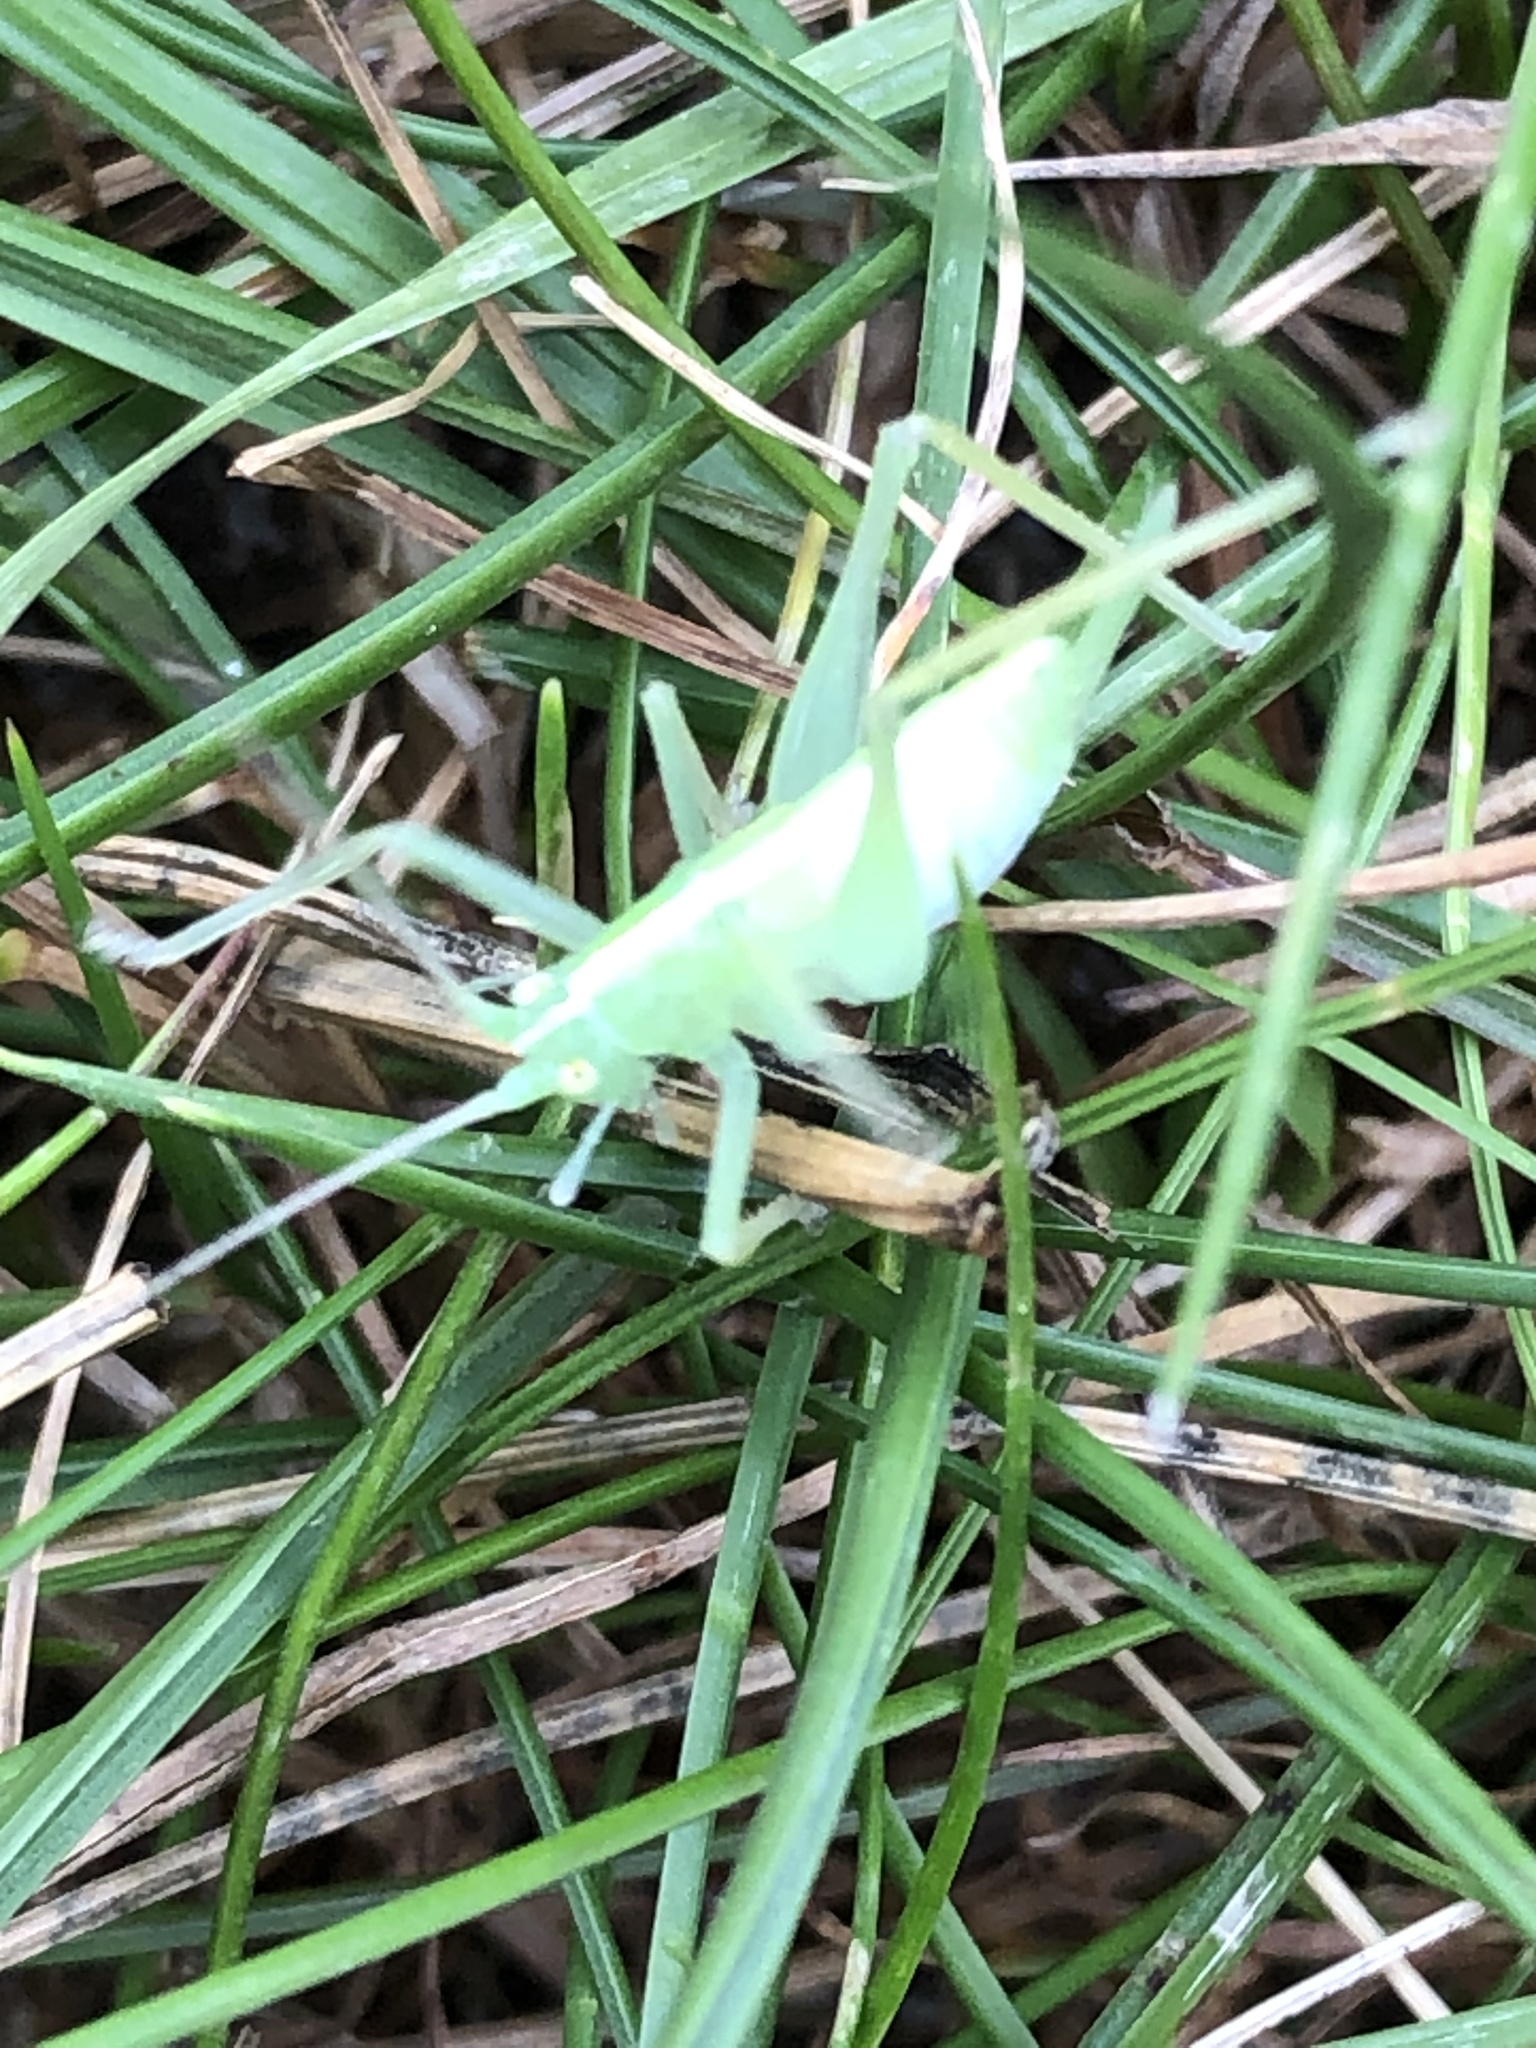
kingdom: Animalia
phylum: Arthropoda
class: Insecta
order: Orthoptera
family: Tettigoniidae
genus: Meconema
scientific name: Meconema thalassinum
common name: Oak bush-cricket
